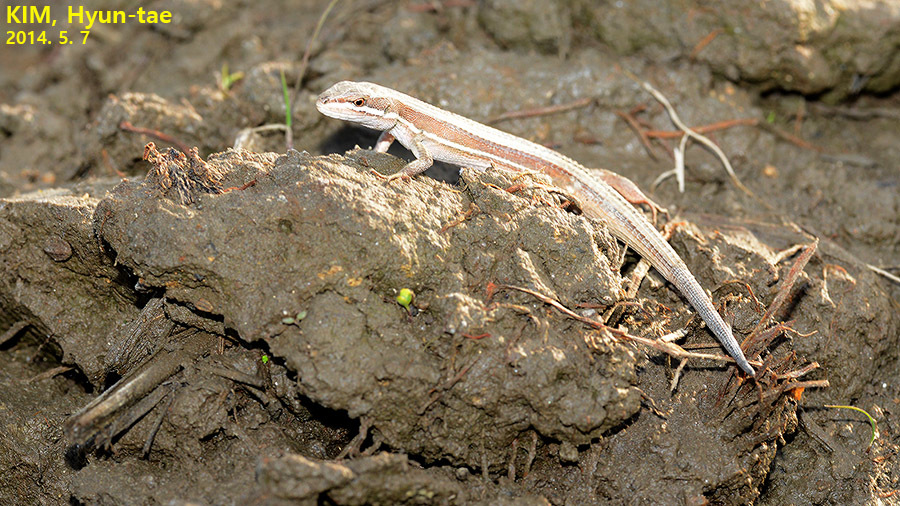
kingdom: Animalia
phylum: Chordata
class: Squamata
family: Lacertidae
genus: Takydromus
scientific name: Takydromus wolteri
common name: Mountain grass lizard
